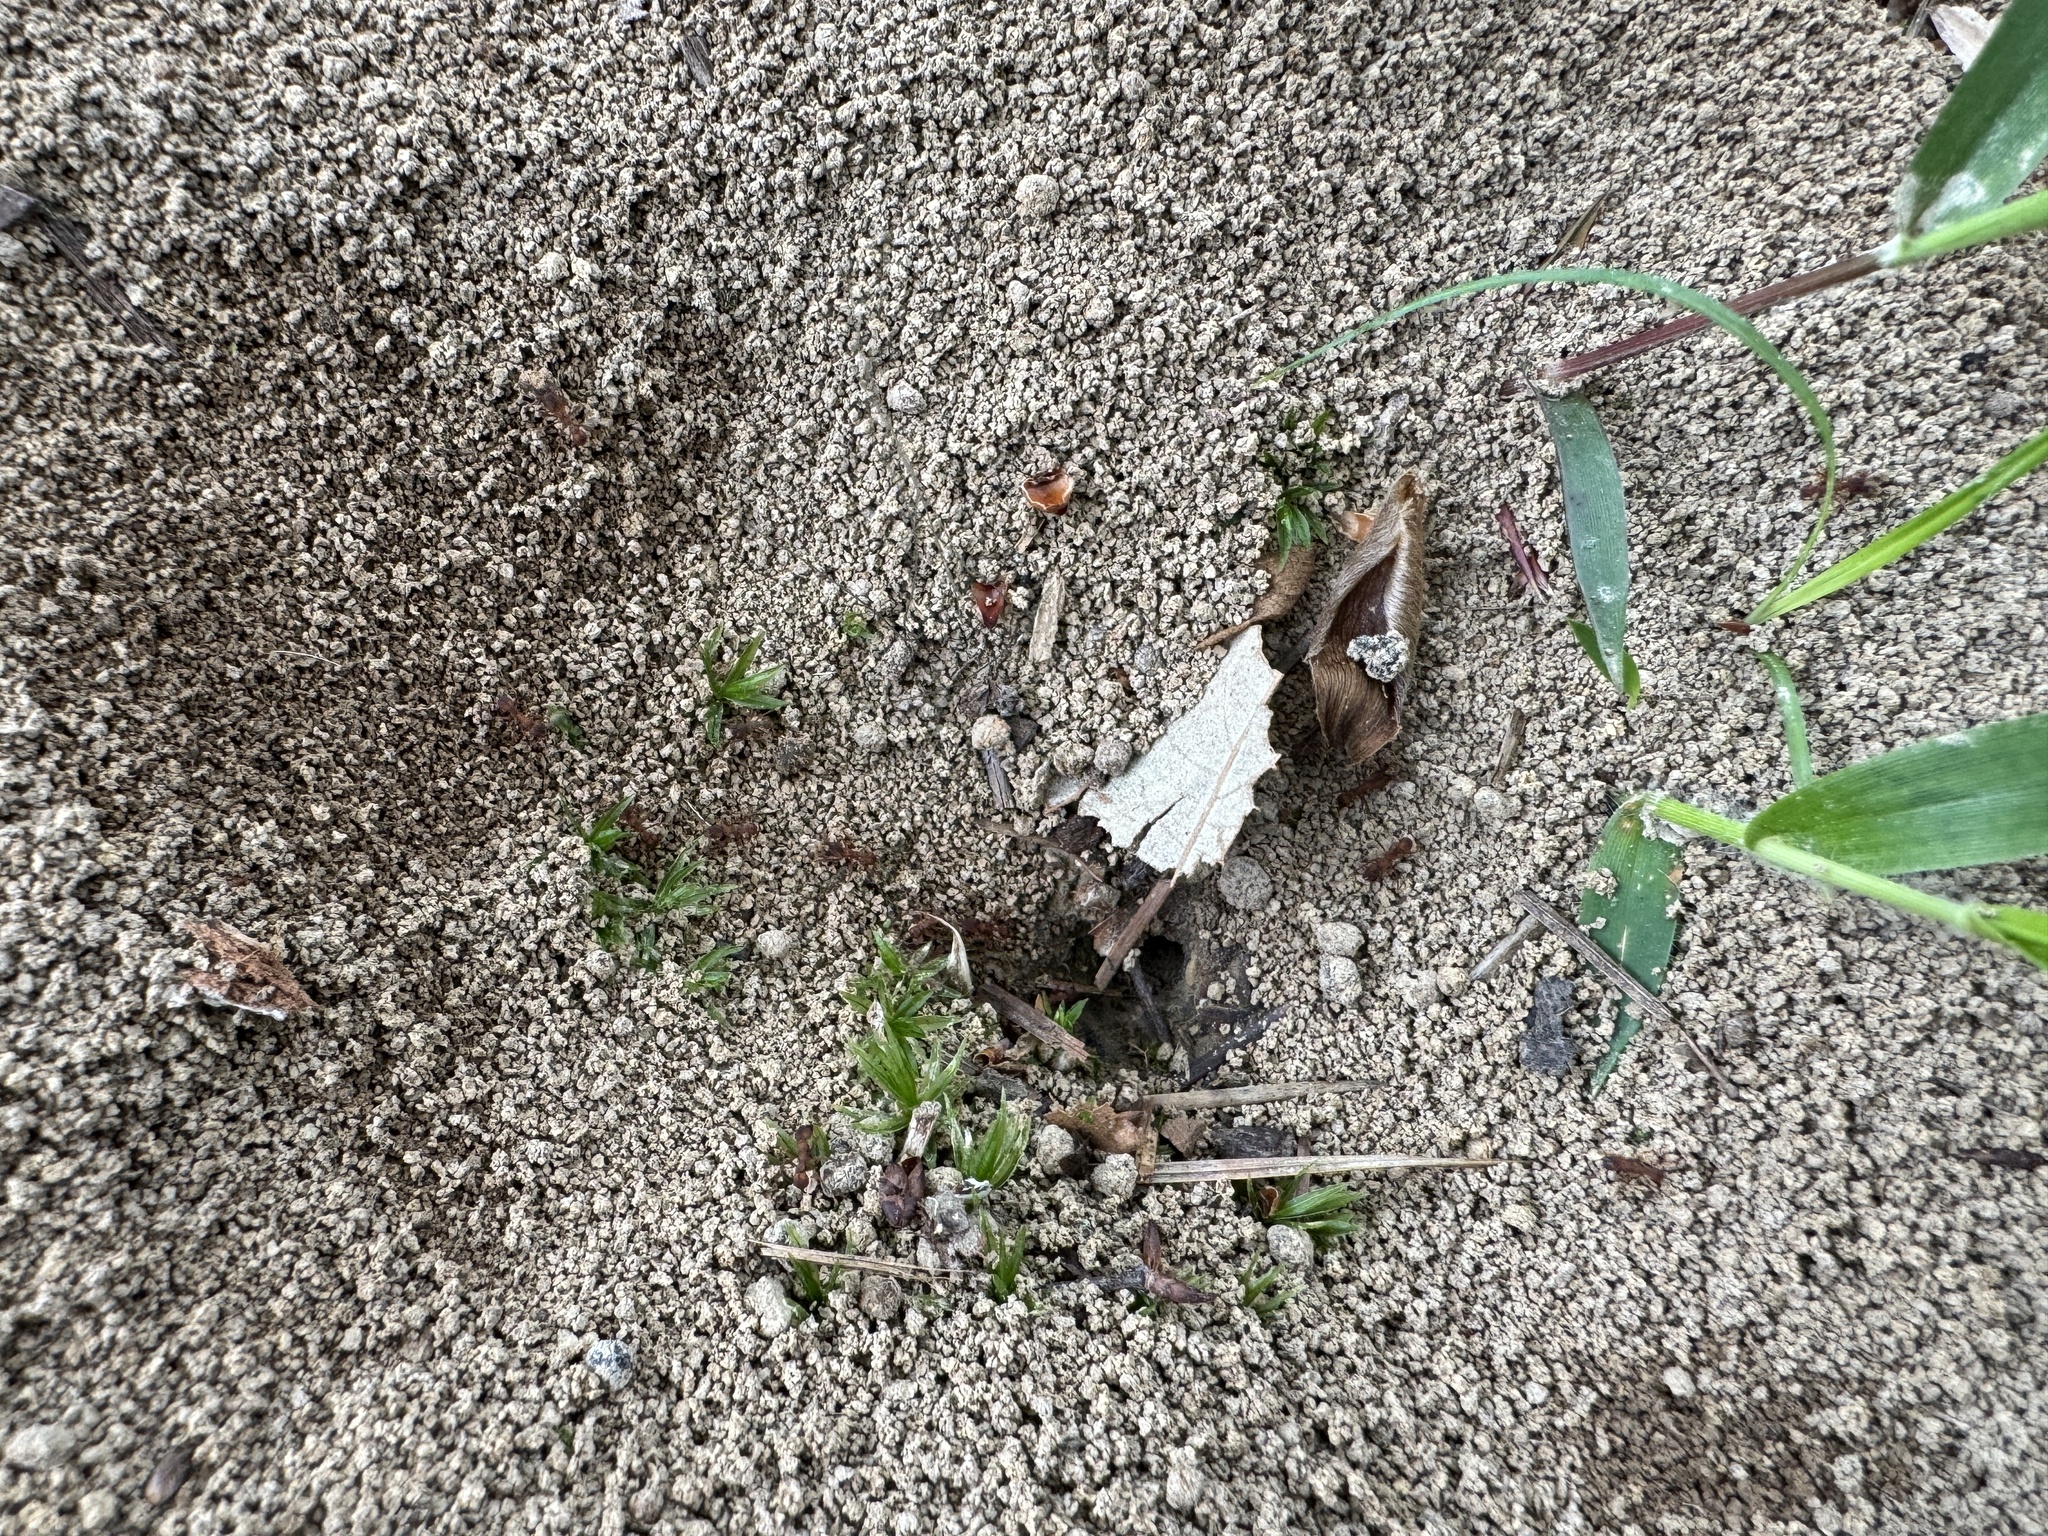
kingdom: Animalia
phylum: Arthropoda
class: Insecta
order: Hymenoptera
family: Formicidae
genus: Trachymyrmex
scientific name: Trachymyrmex septentrionalis
